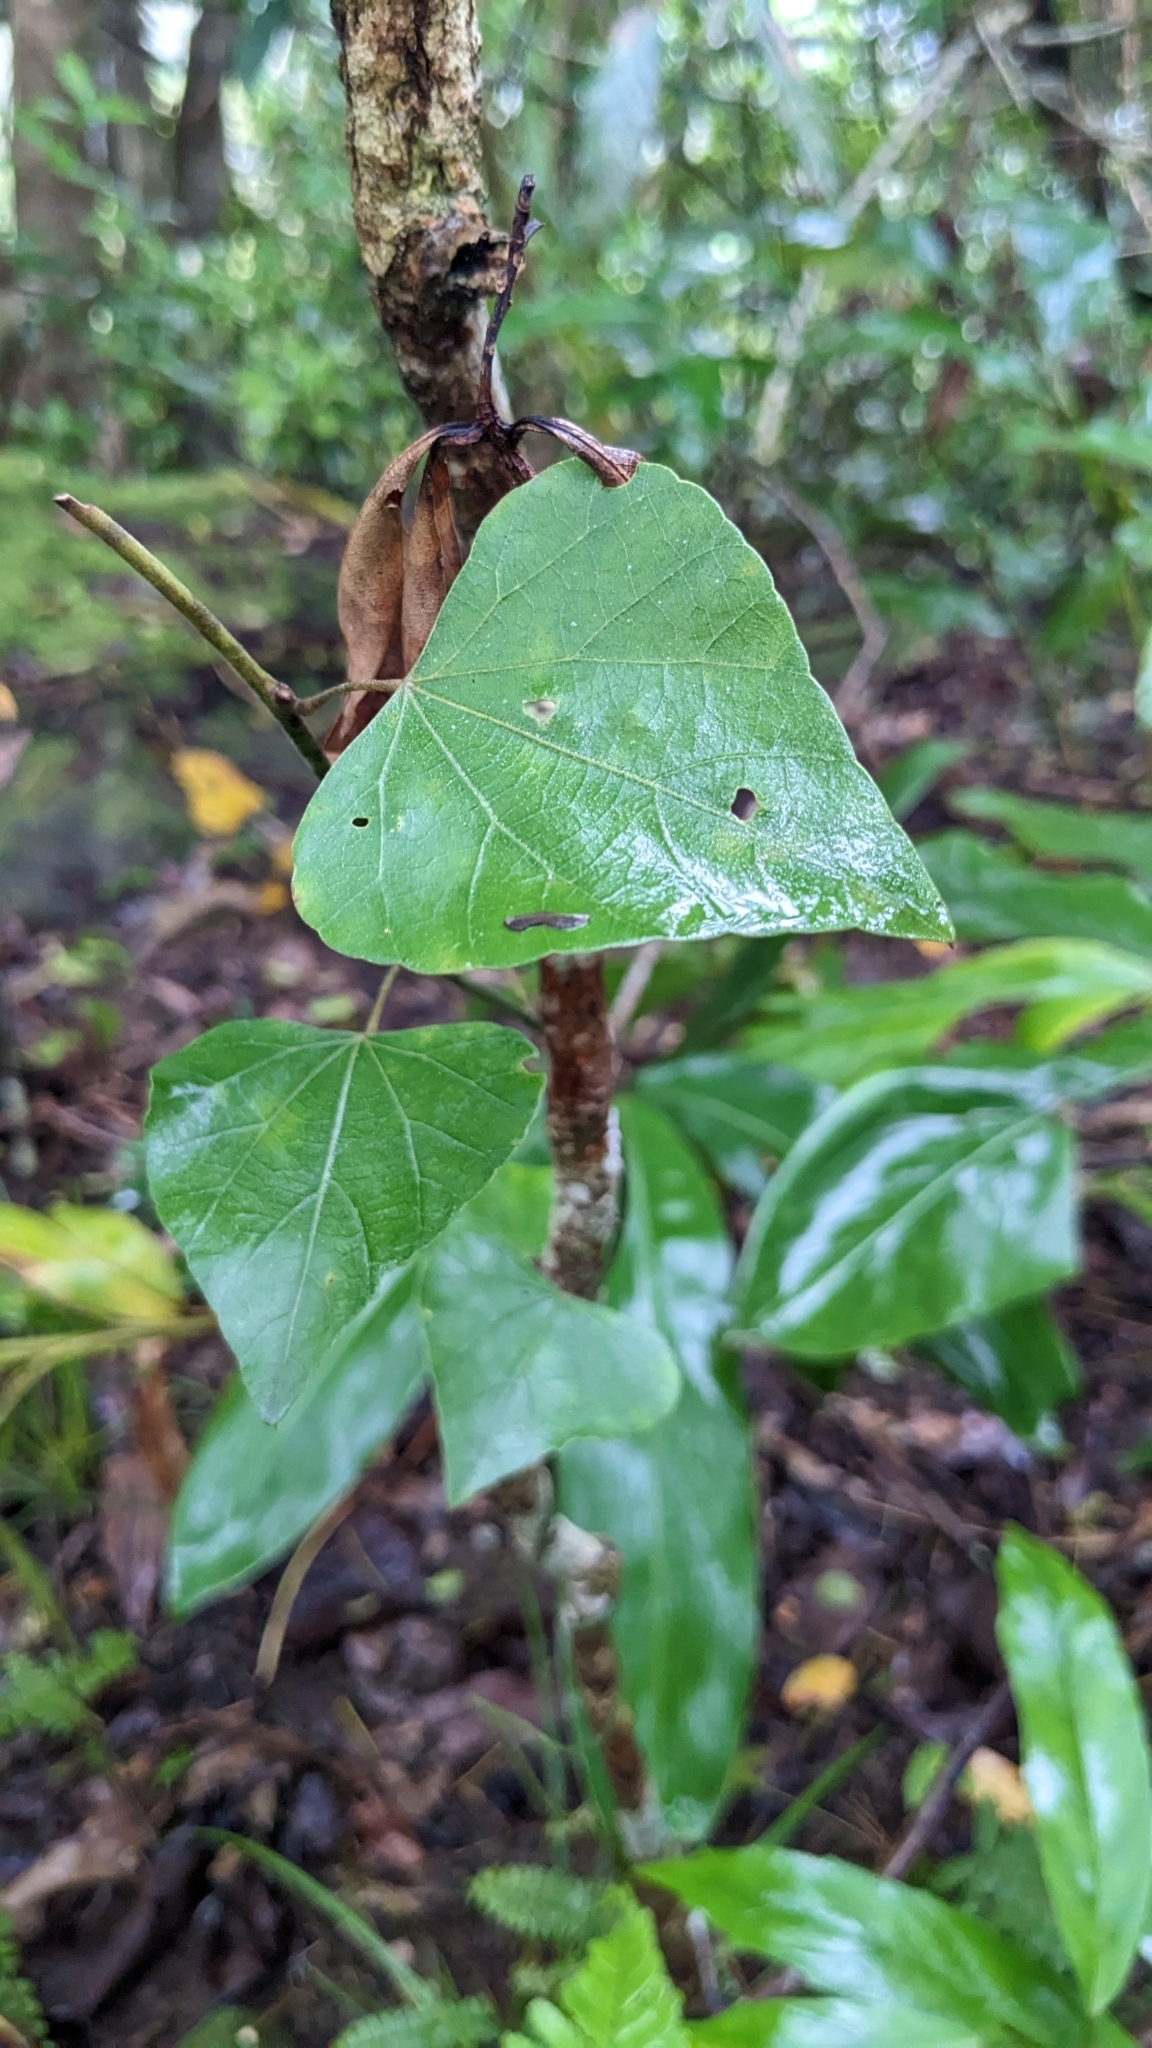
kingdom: Plantae
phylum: Tracheophyta
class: Magnoliopsida
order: Ranunculales
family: Menispermaceae
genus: Pericampylus
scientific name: Pericampylus glaucus
